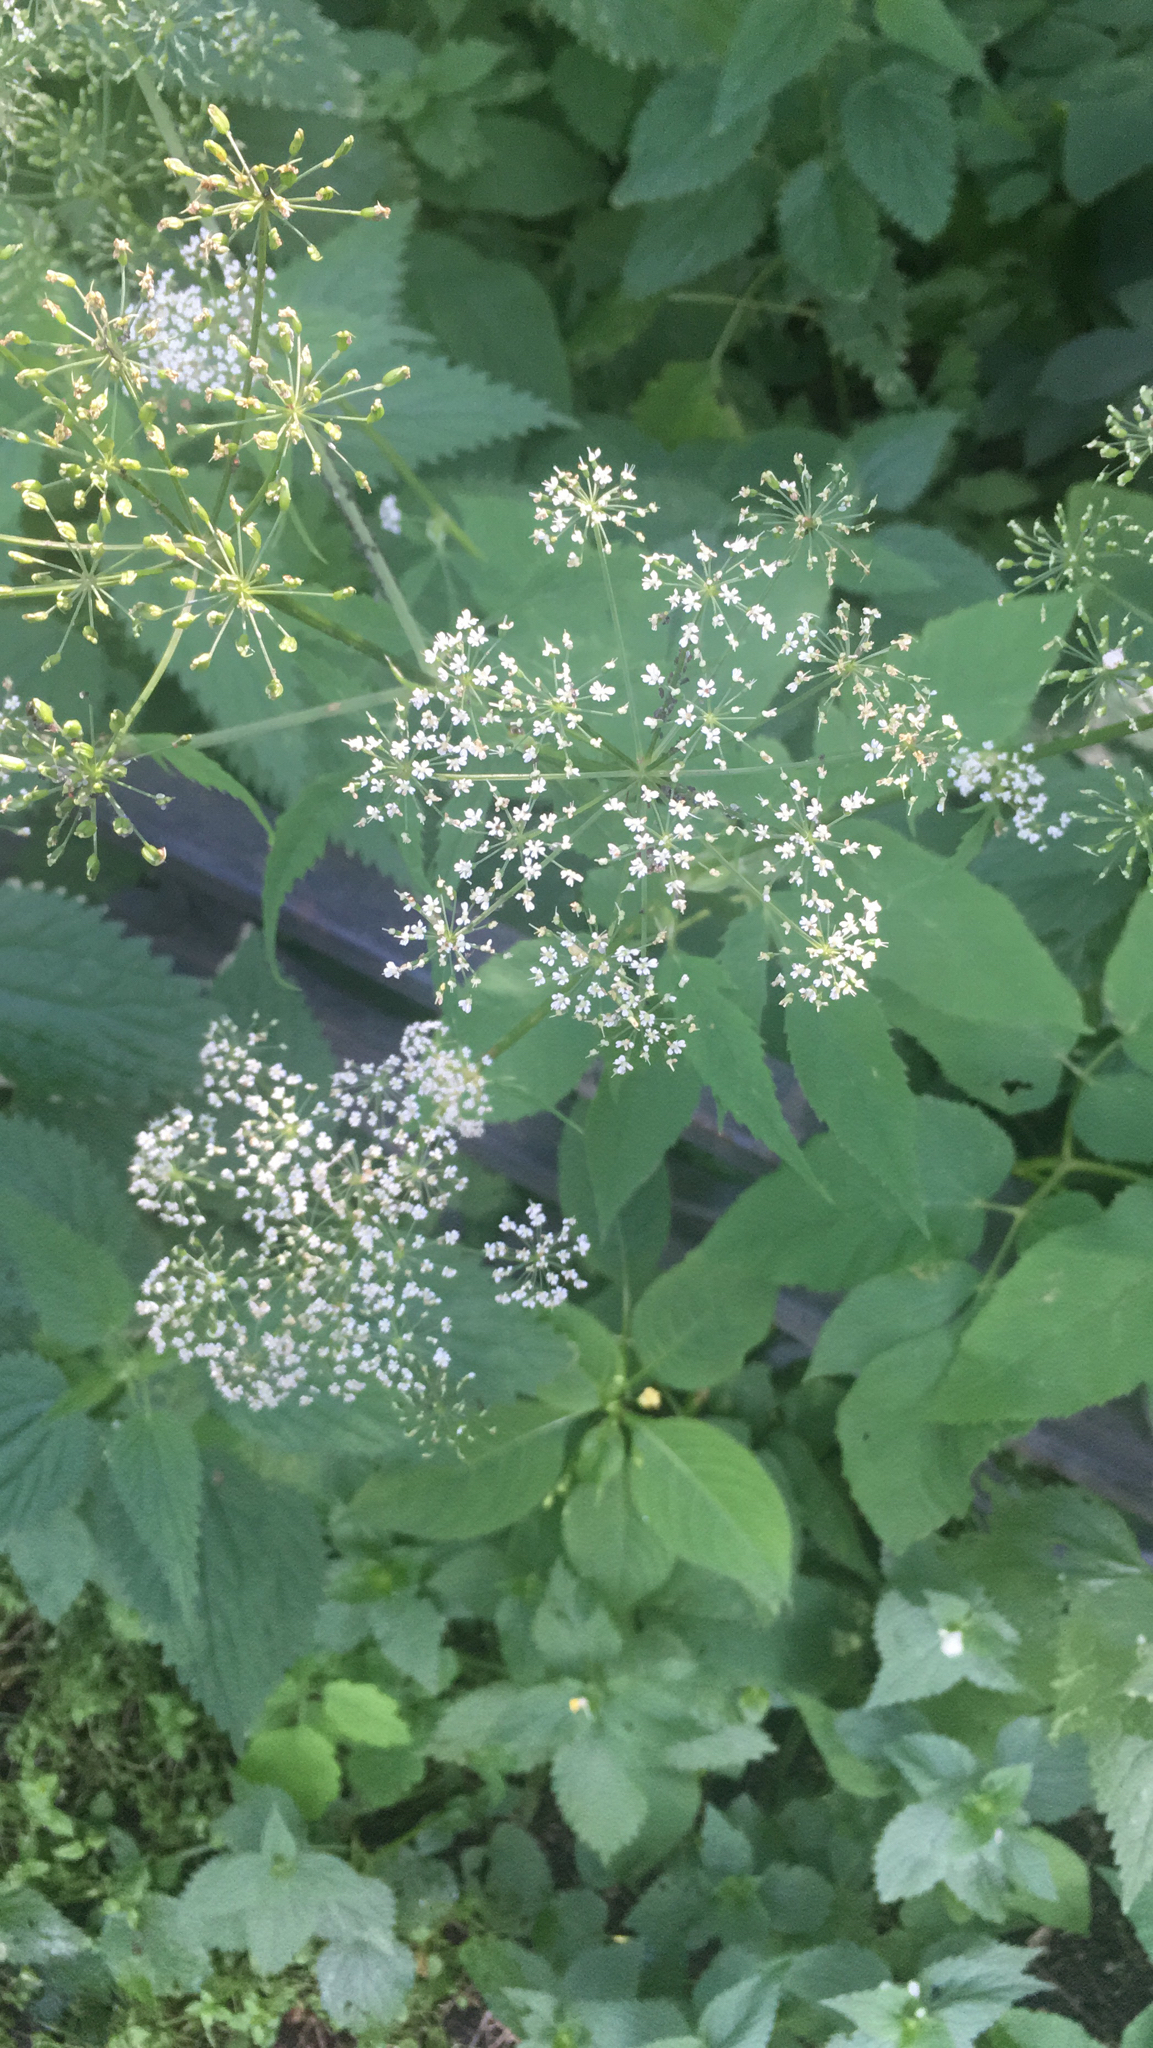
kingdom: Plantae
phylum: Tracheophyta
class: Magnoliopsida
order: Apiales
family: Apiaceae
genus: Aegopodium
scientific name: Aegopodium podagraria
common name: Ground-elder
